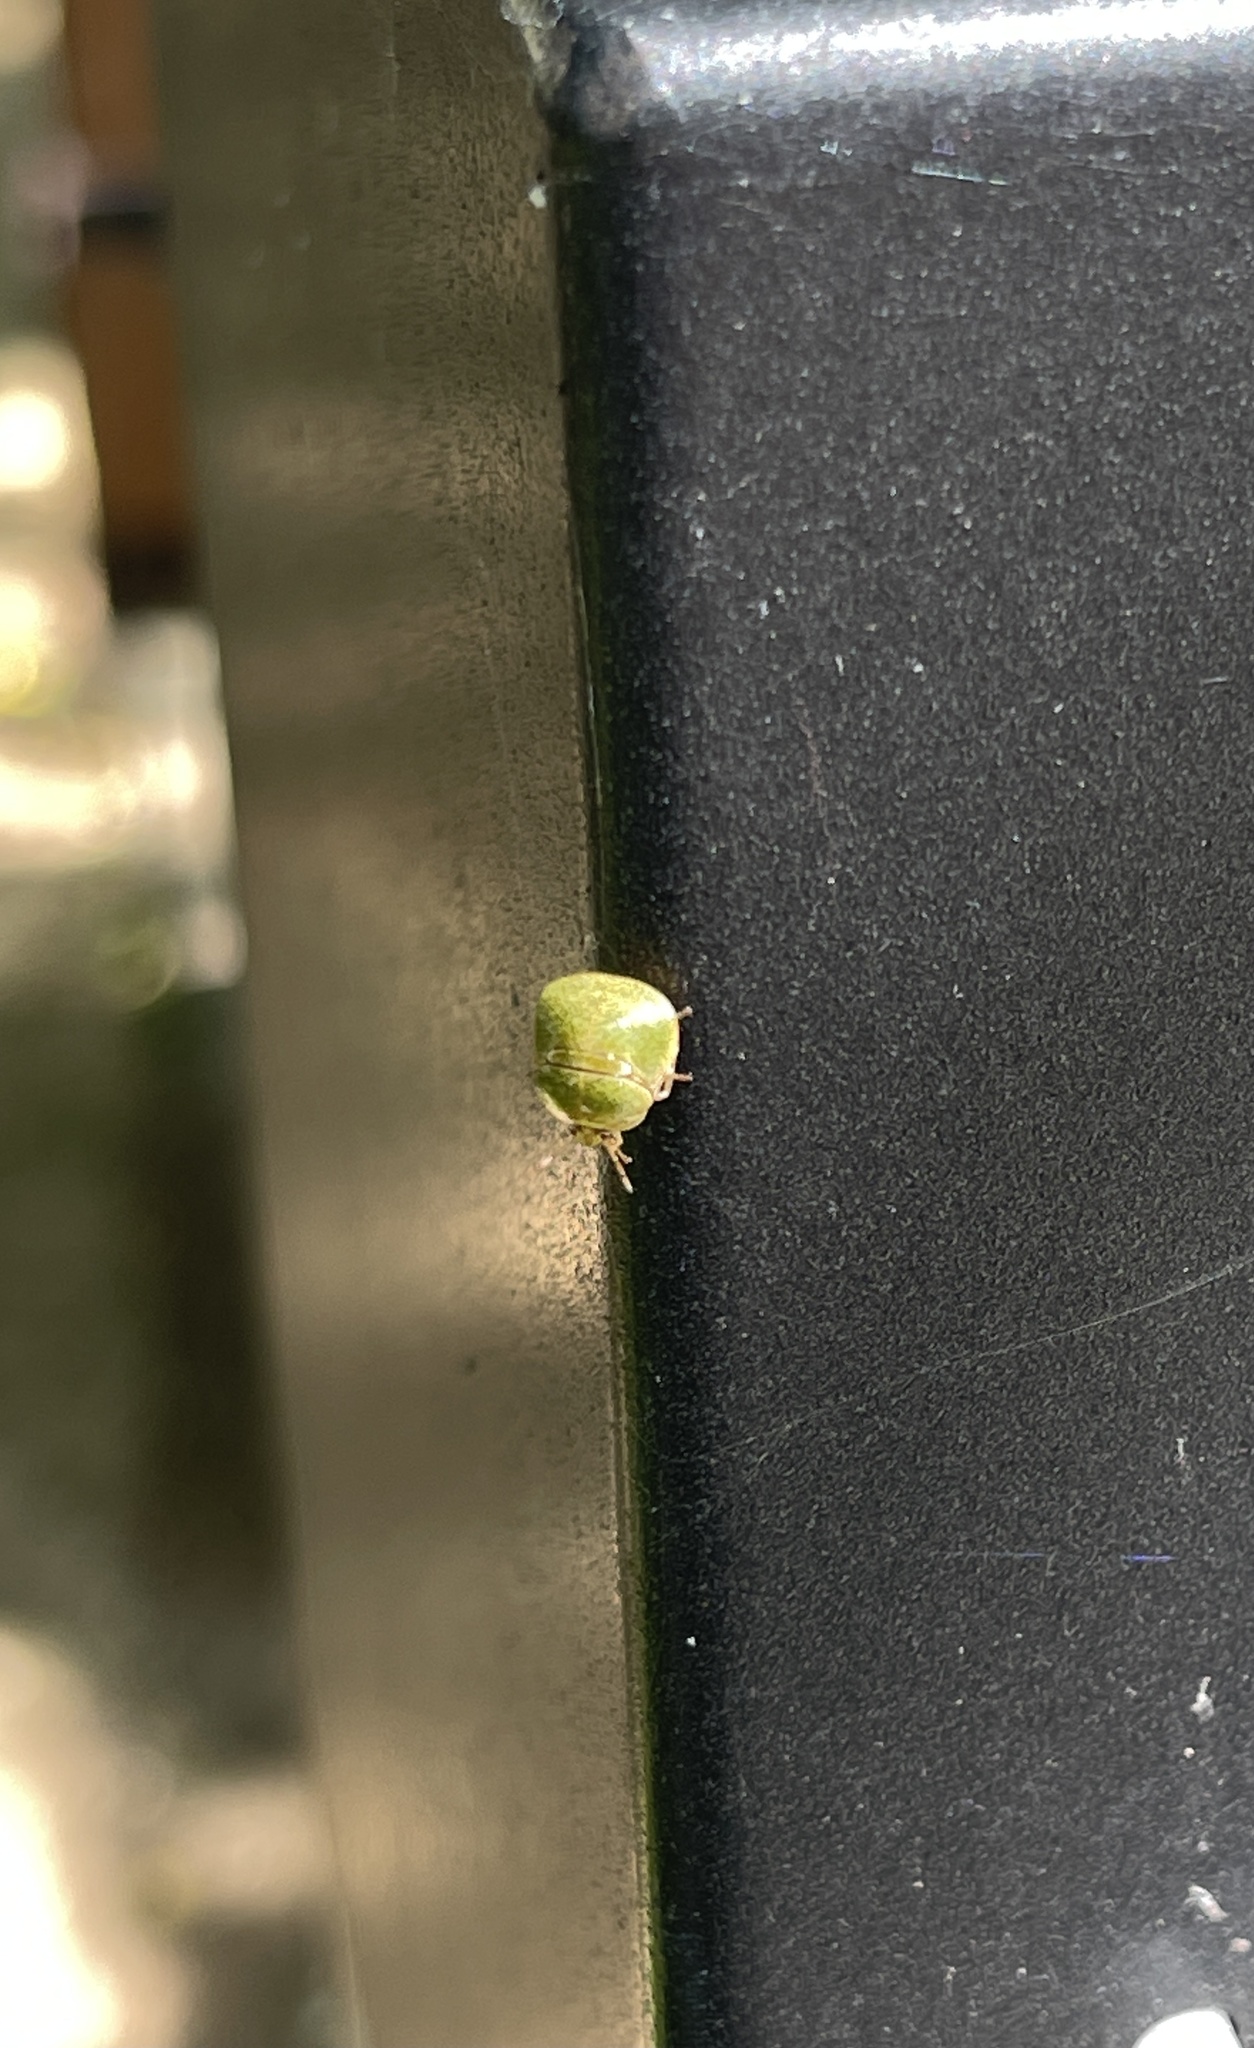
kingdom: Animalia
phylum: Arthropoda
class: Insecta
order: Hemiptera
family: Plataspidae
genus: Megacopta
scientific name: Megacopta cribraria
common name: Bean plataspid
